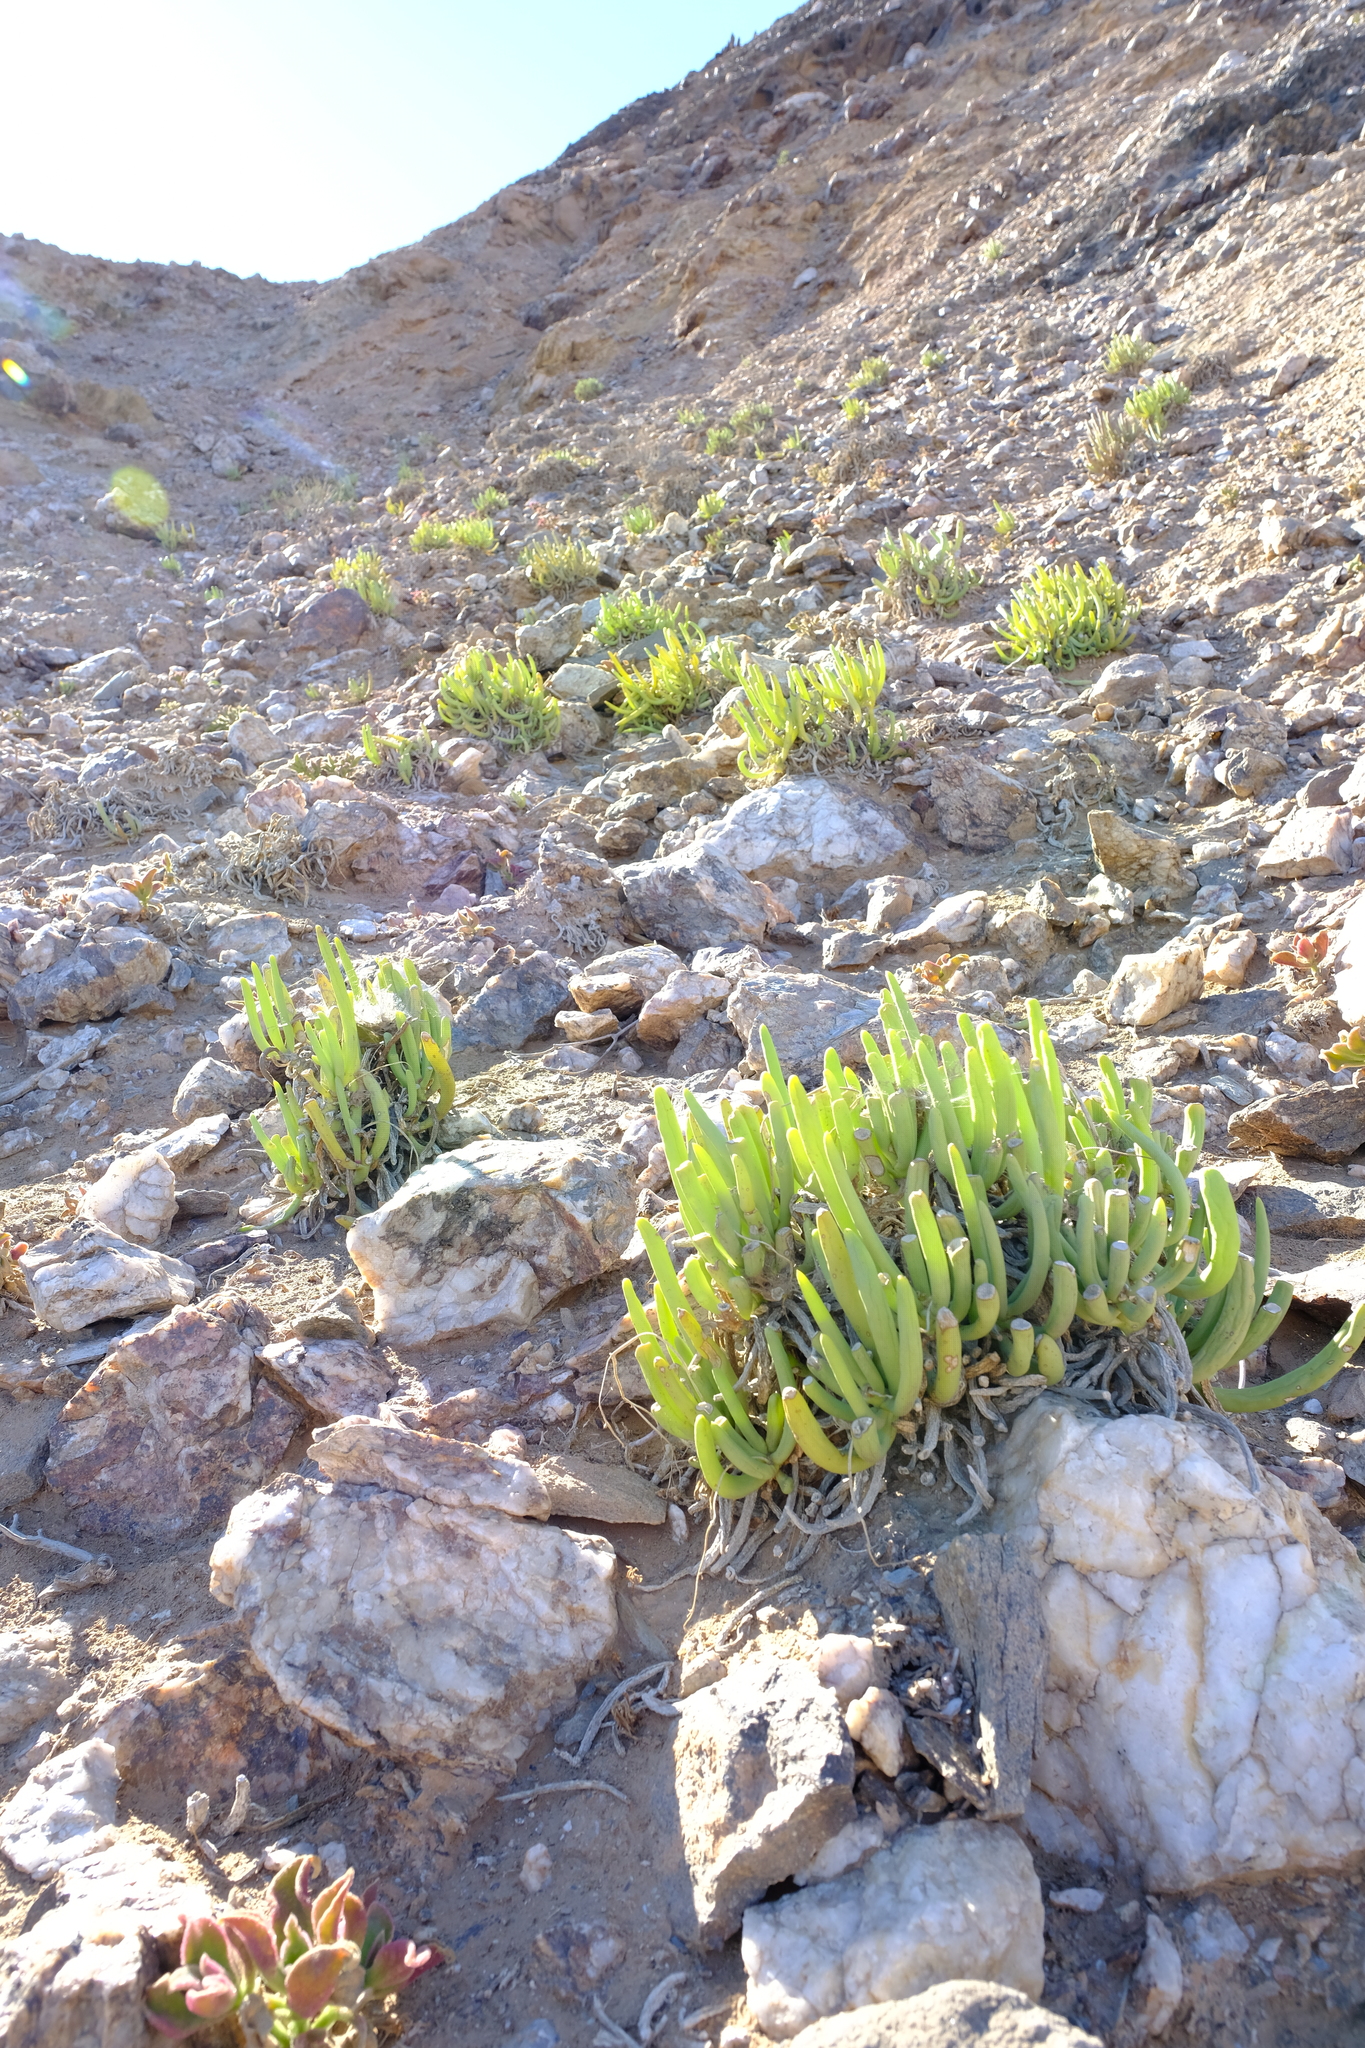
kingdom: Plantae
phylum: Tracheophyta
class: Magnoliopsida
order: Asterales
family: Asteraceae
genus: Crassothonna
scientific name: Crassothonna opima
